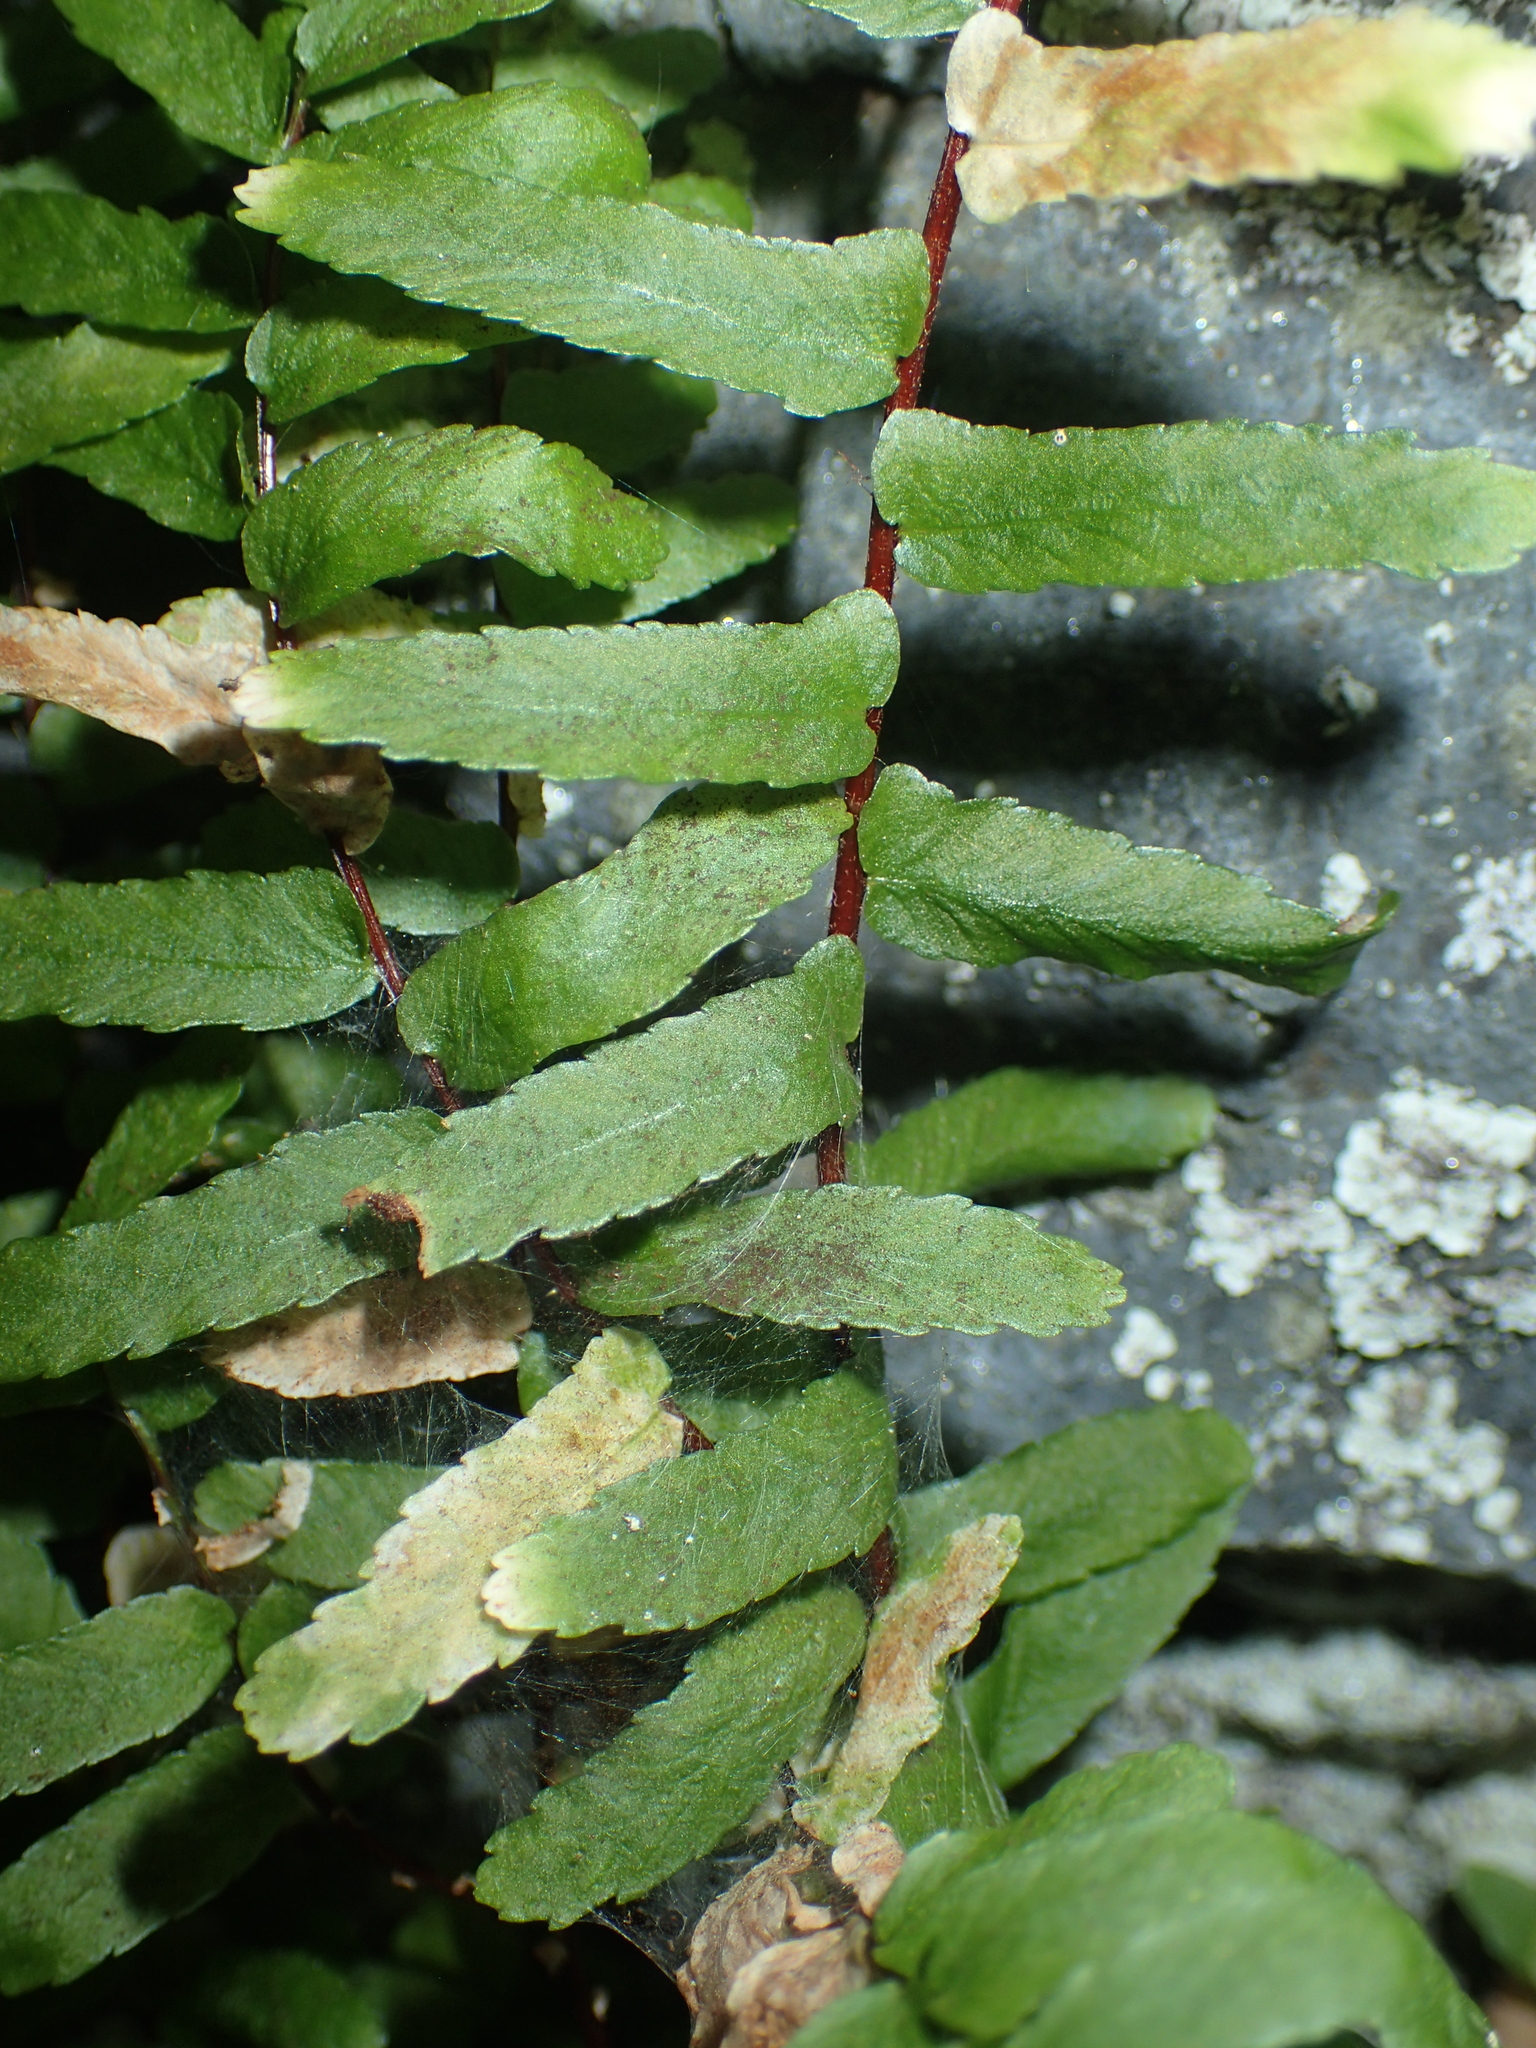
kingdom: Plantae
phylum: Tracheophyta
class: Polypodiopsida
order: Polypodiales
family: Aspleniaceae
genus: Asplenium
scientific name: Asplenium platyneuron
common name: Ebony spleenwort
